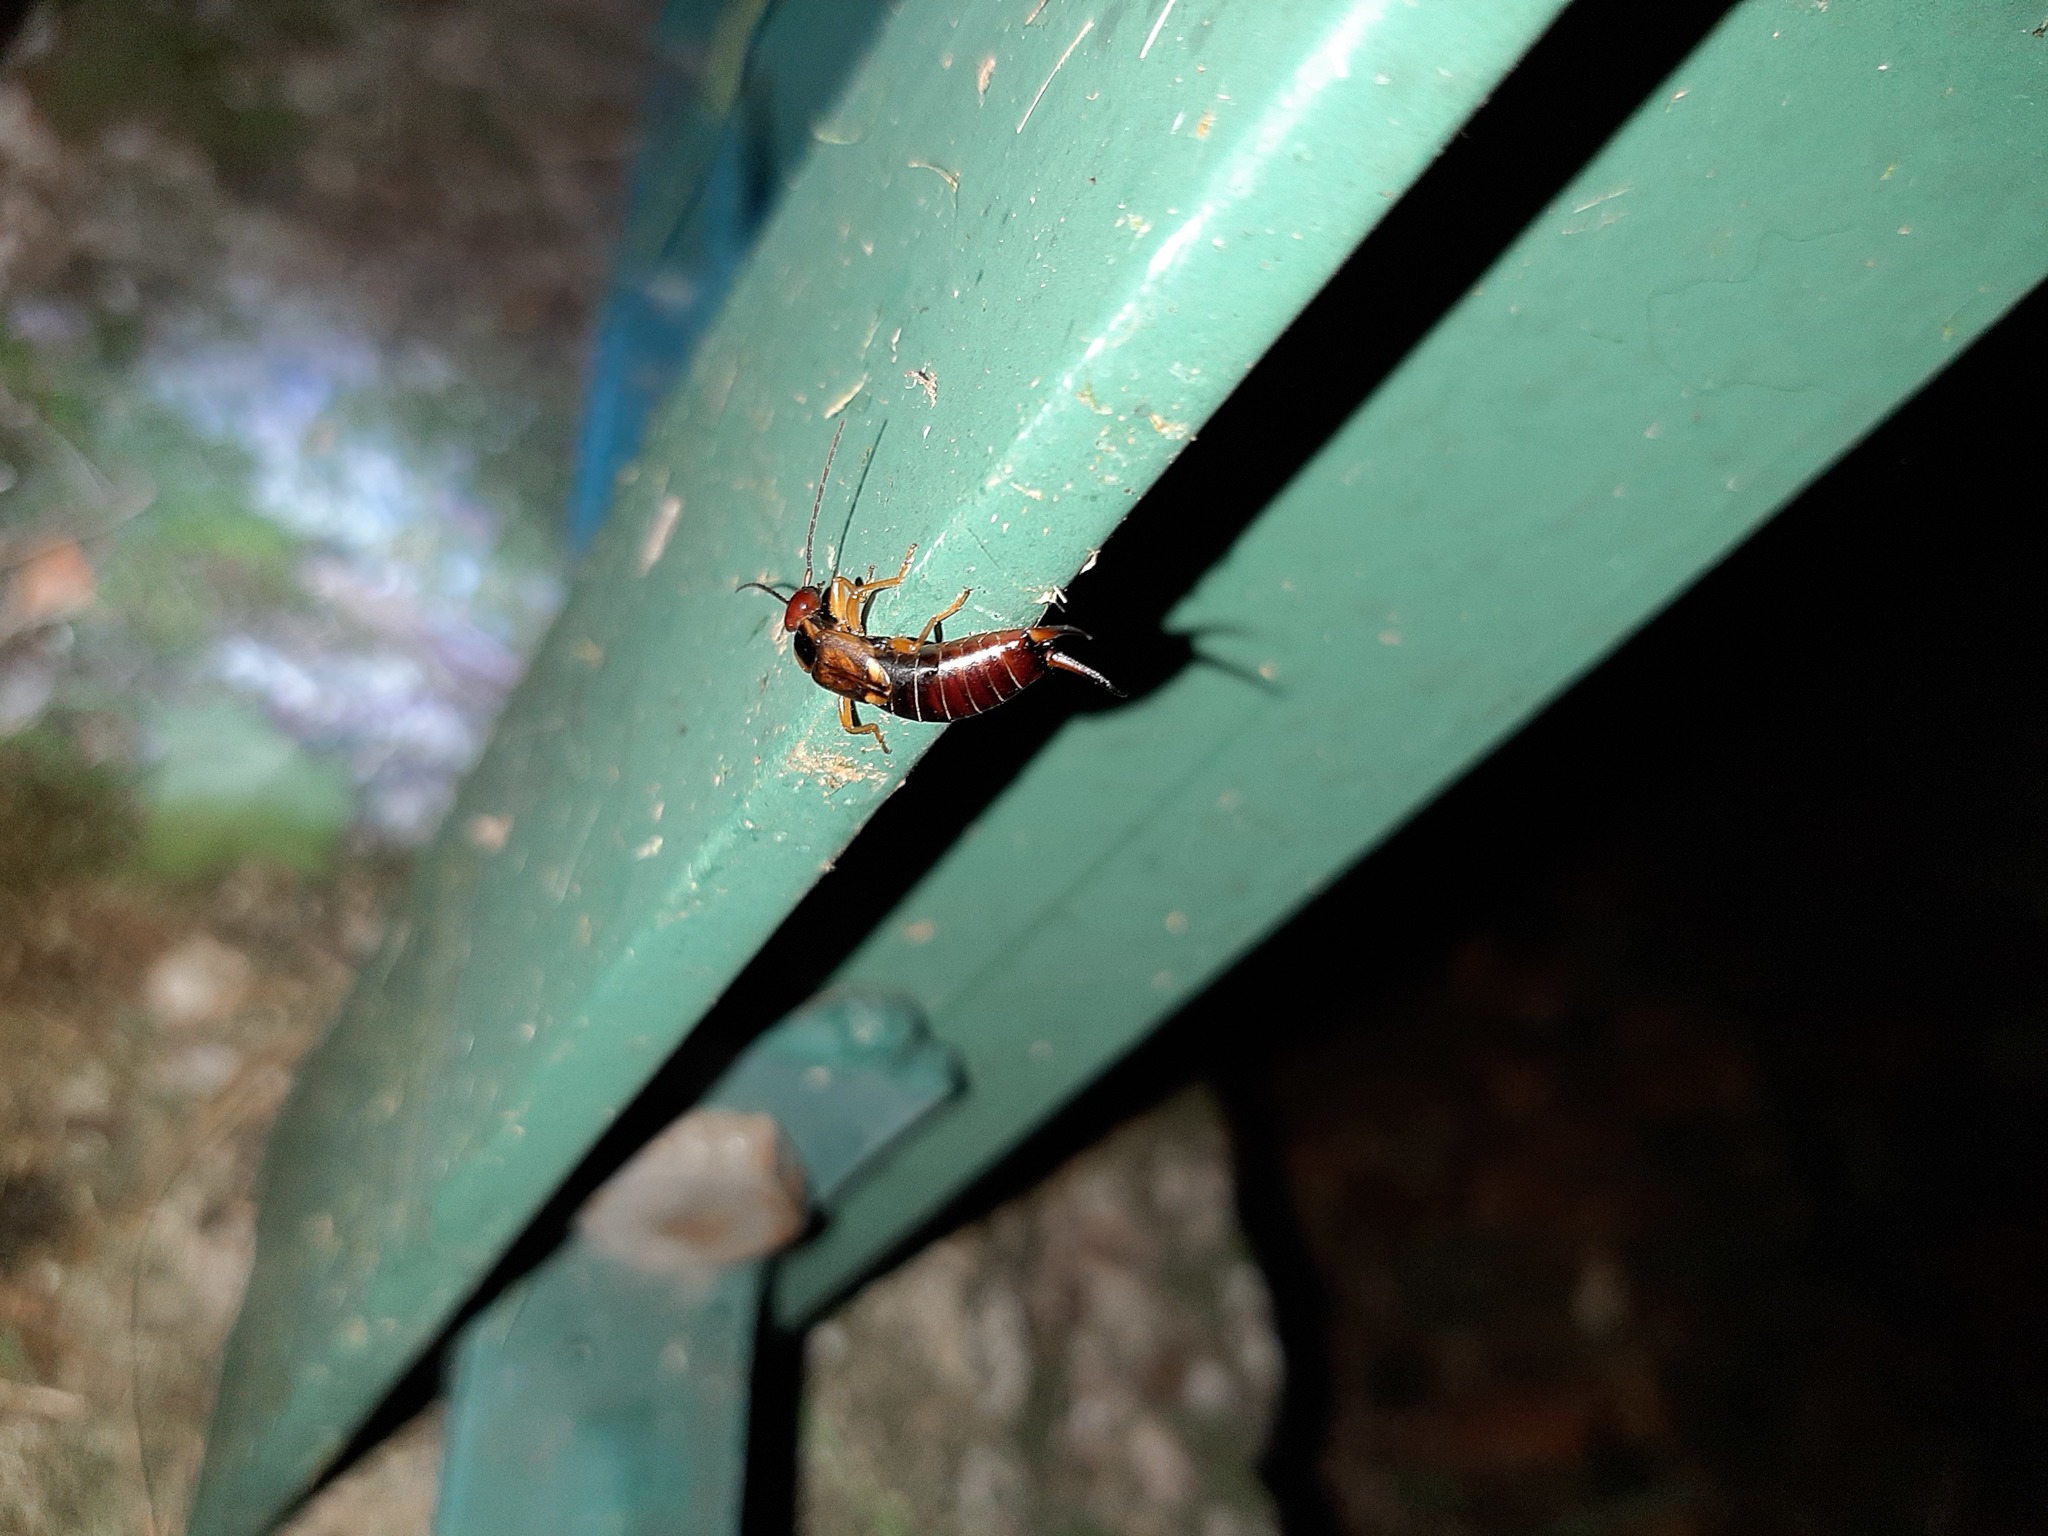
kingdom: Animalia
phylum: Arthropoda
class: Insecta
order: Dermaptera
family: Forficulidae
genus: Forficula
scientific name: Forficula
